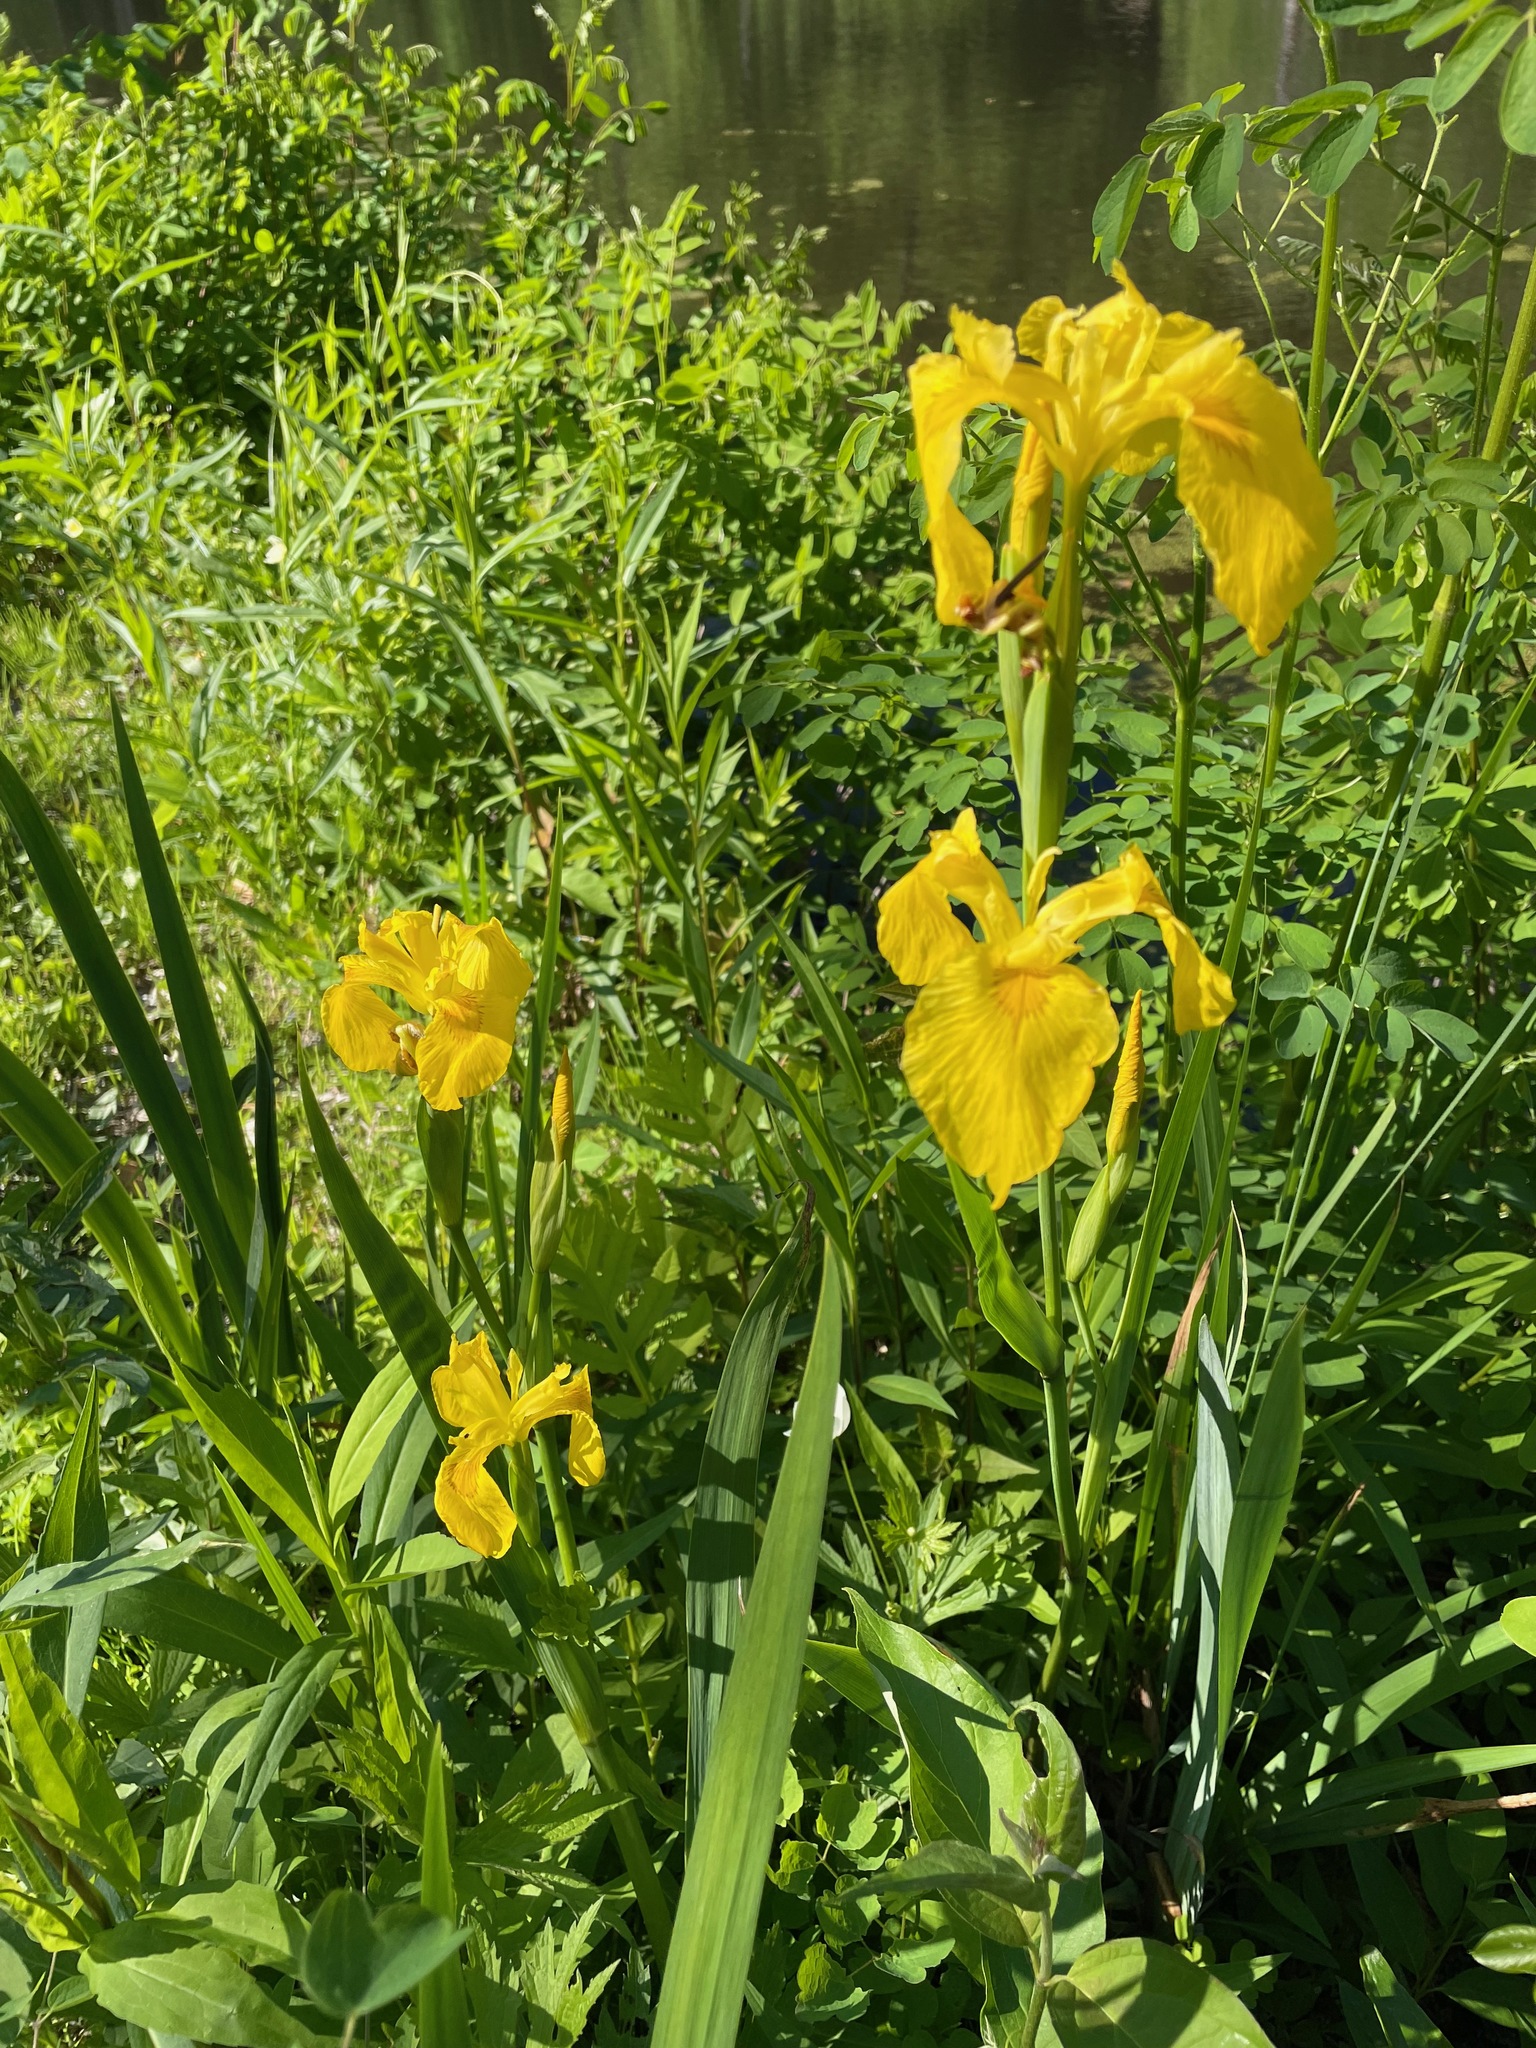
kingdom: Plantae
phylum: Tracheophyta
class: Liliopsida
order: Asparagales
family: Iridaceae
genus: Iris
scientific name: Iris pseudacorus
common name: Yellow flag
